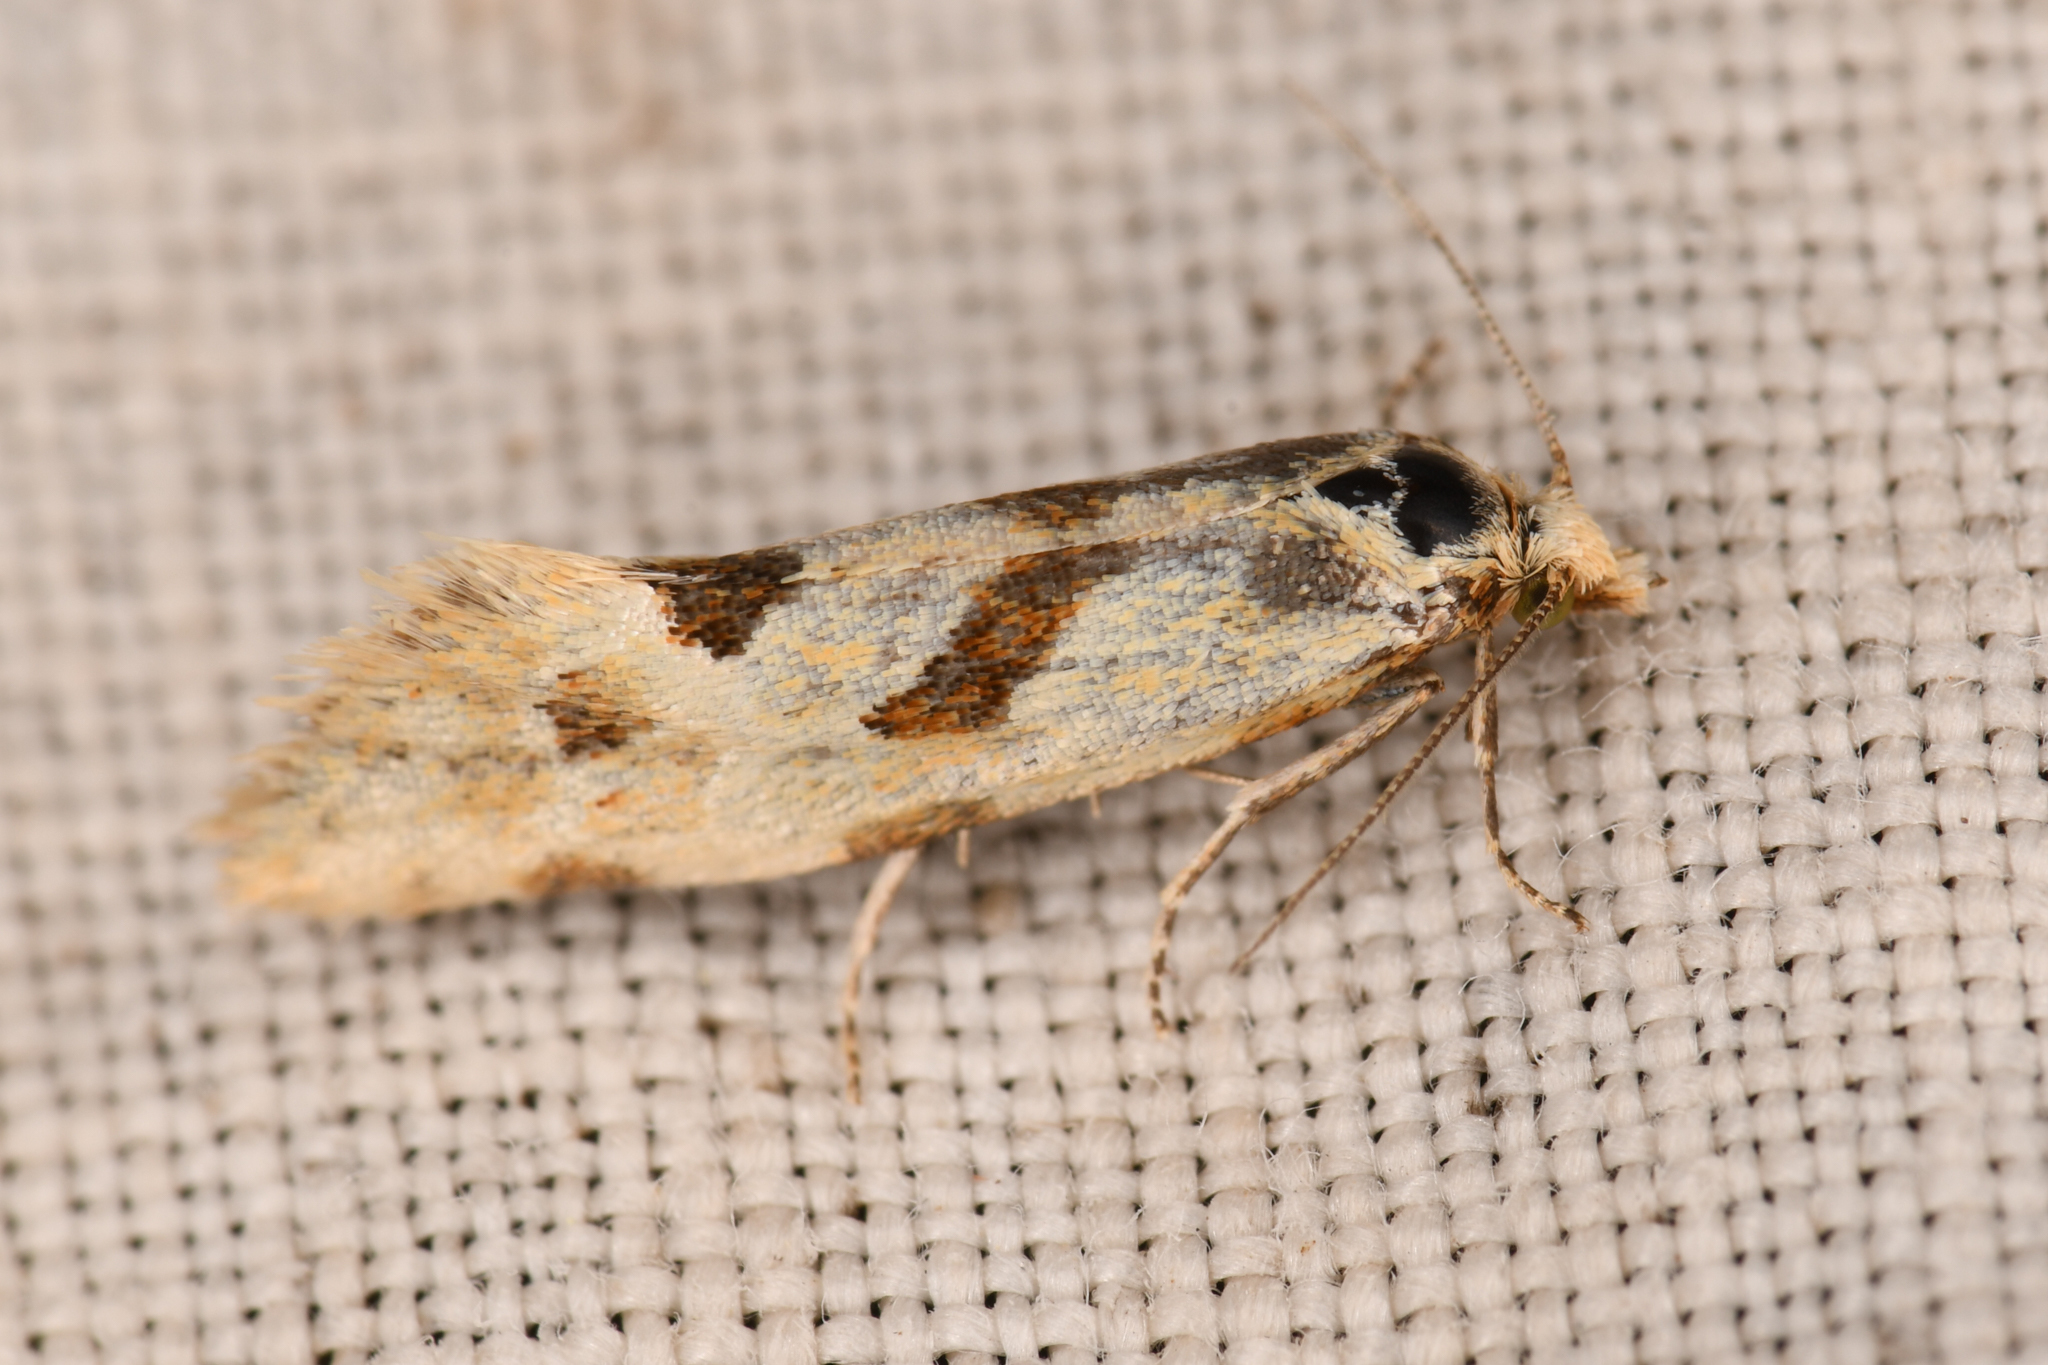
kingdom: Animalia
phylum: Arthropoda
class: Insecta
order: Lepidoptera
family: Tortricidae
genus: Aethes
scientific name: Aethes smeathmanniana
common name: Yarrow conch
